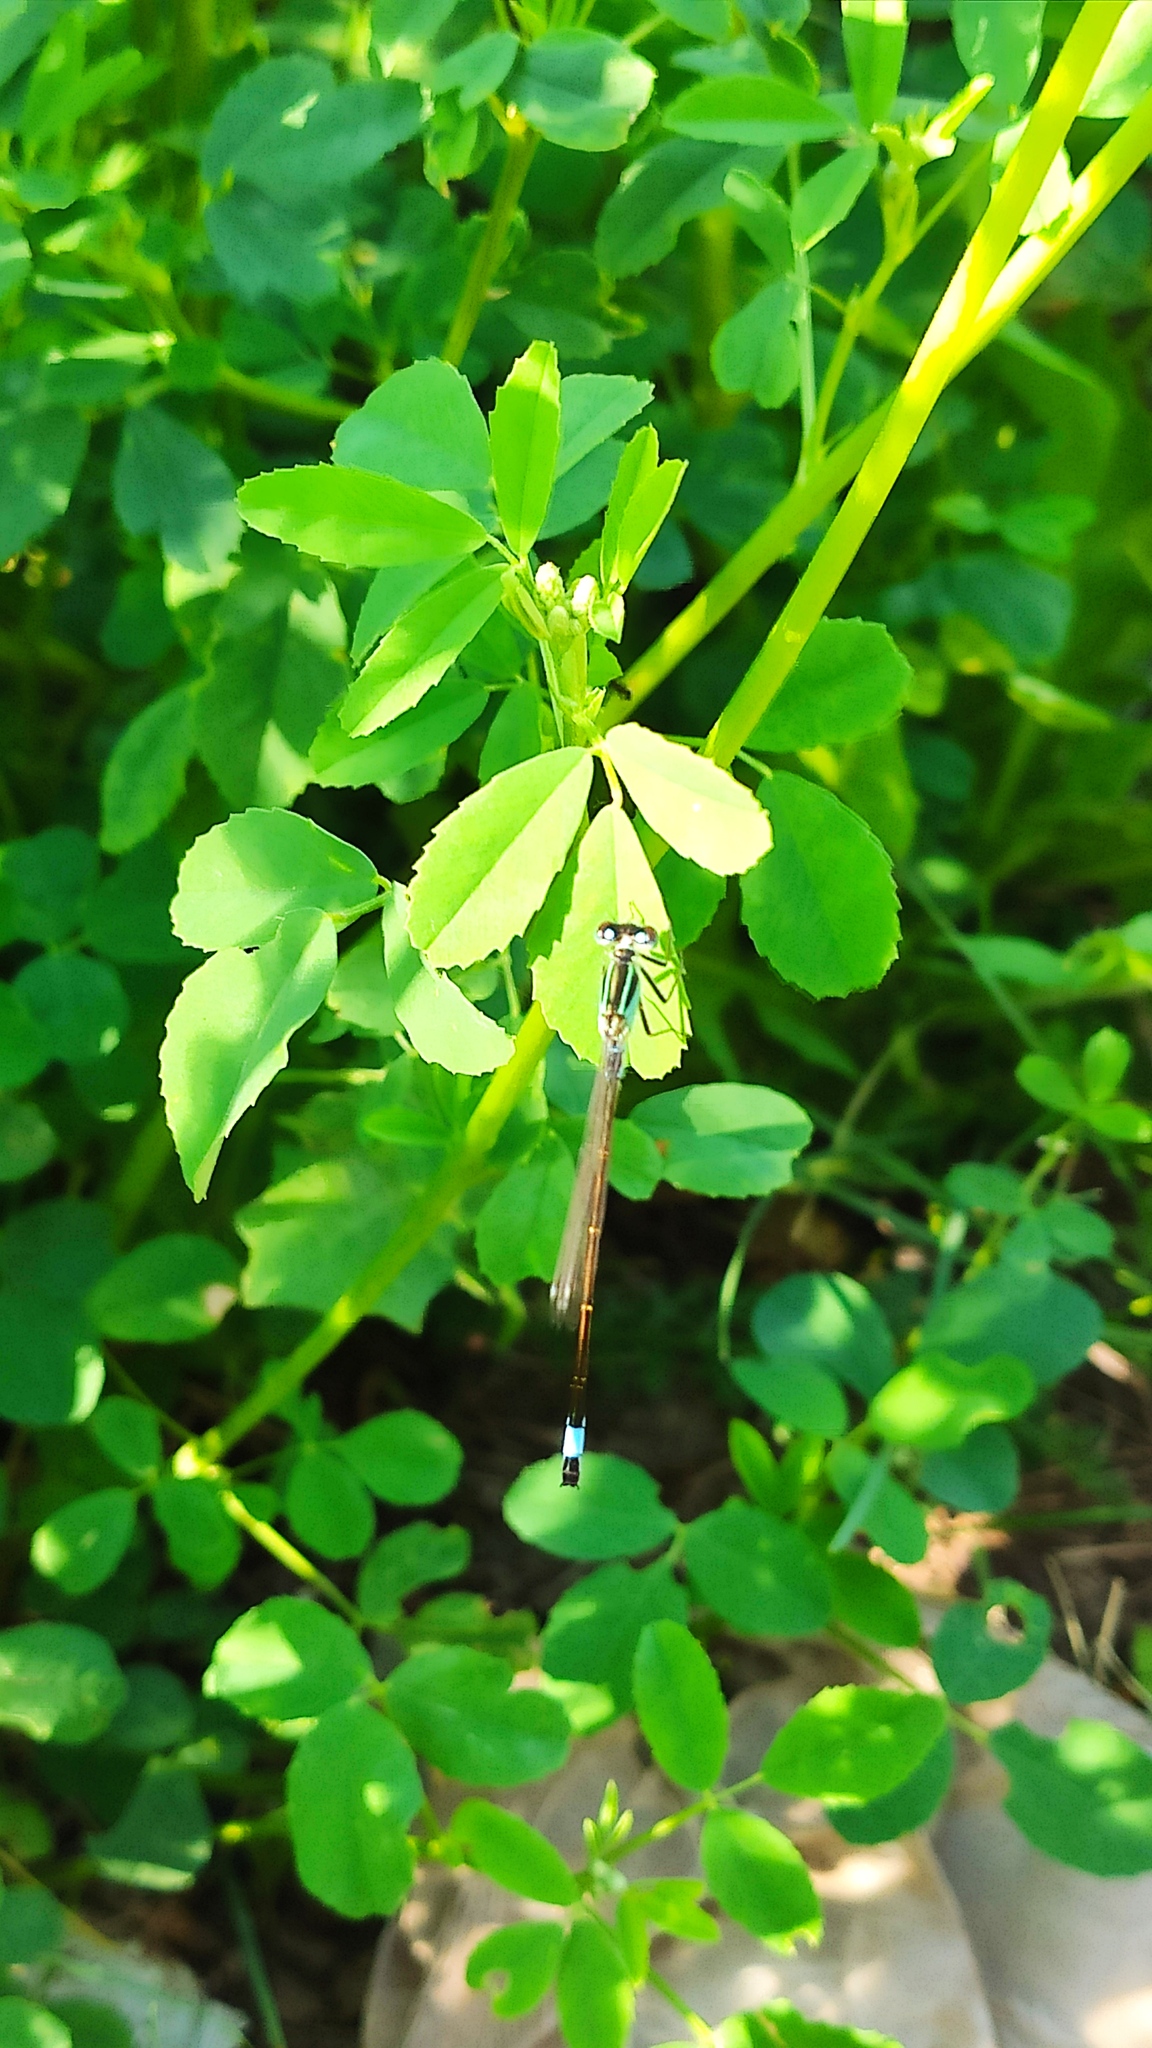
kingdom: Animalia
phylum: Arthropoda
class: Insecta
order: Odonata
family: Coenagrionidae
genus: Ischnura
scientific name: Ischnura elegans
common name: Blue-tailed damselfly
